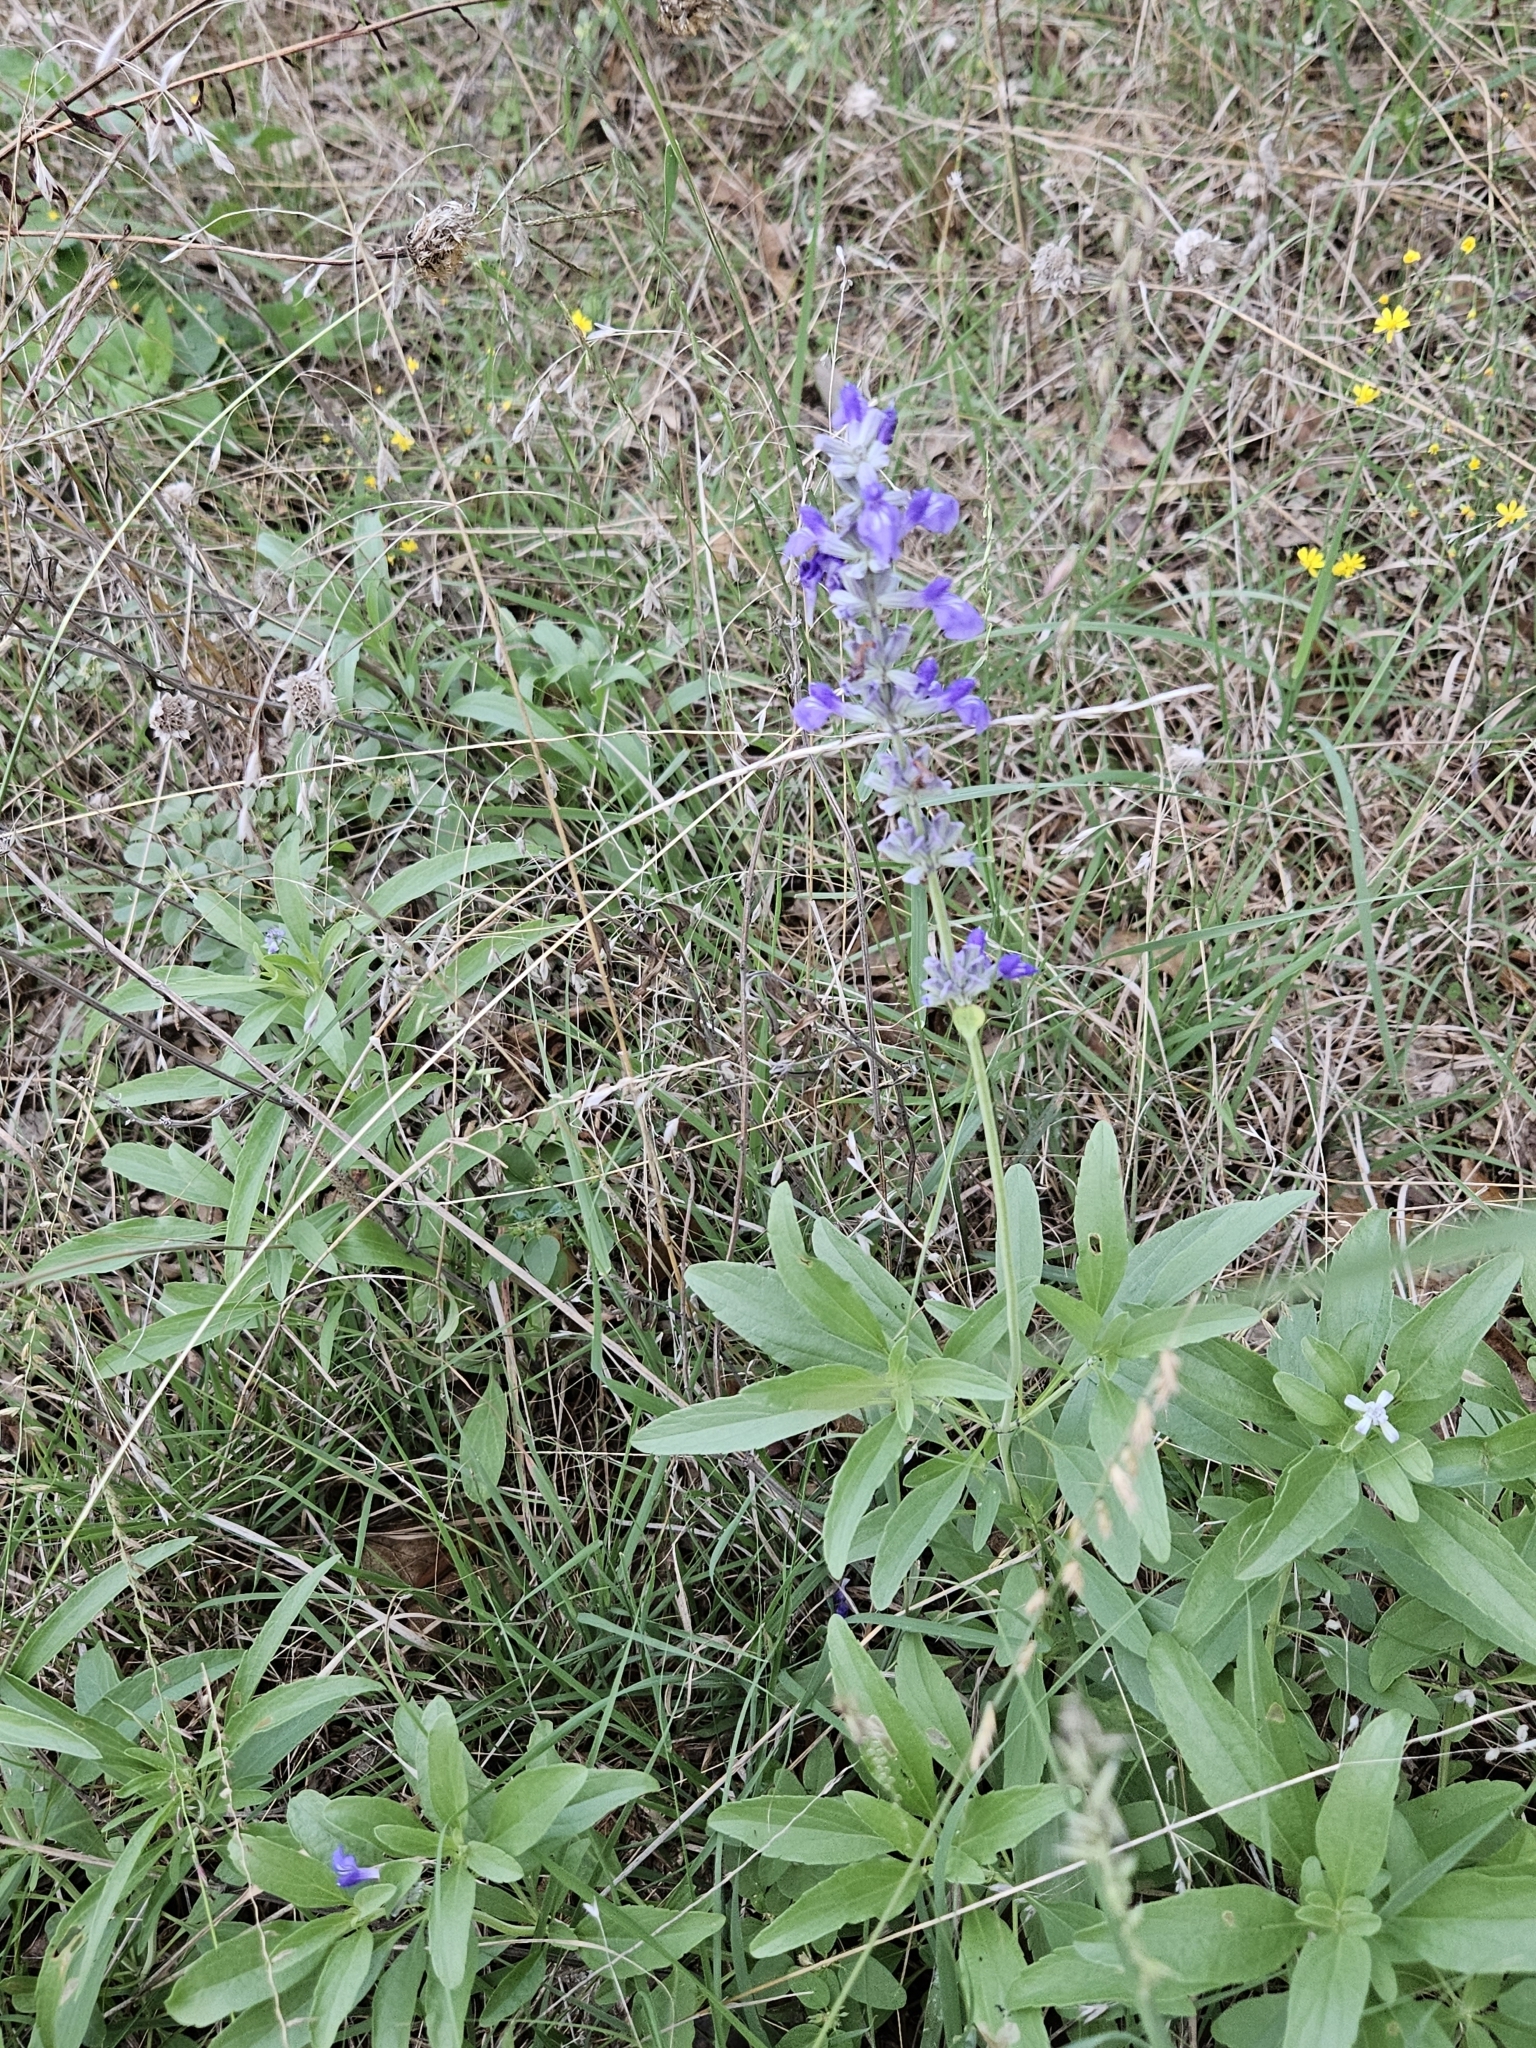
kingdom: Plantae
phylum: Tracheophyta
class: Magnoliopsida
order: Lamiales
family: Lamiaceae
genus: Salvia
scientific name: Salvia farinacea
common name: Mealy sage
